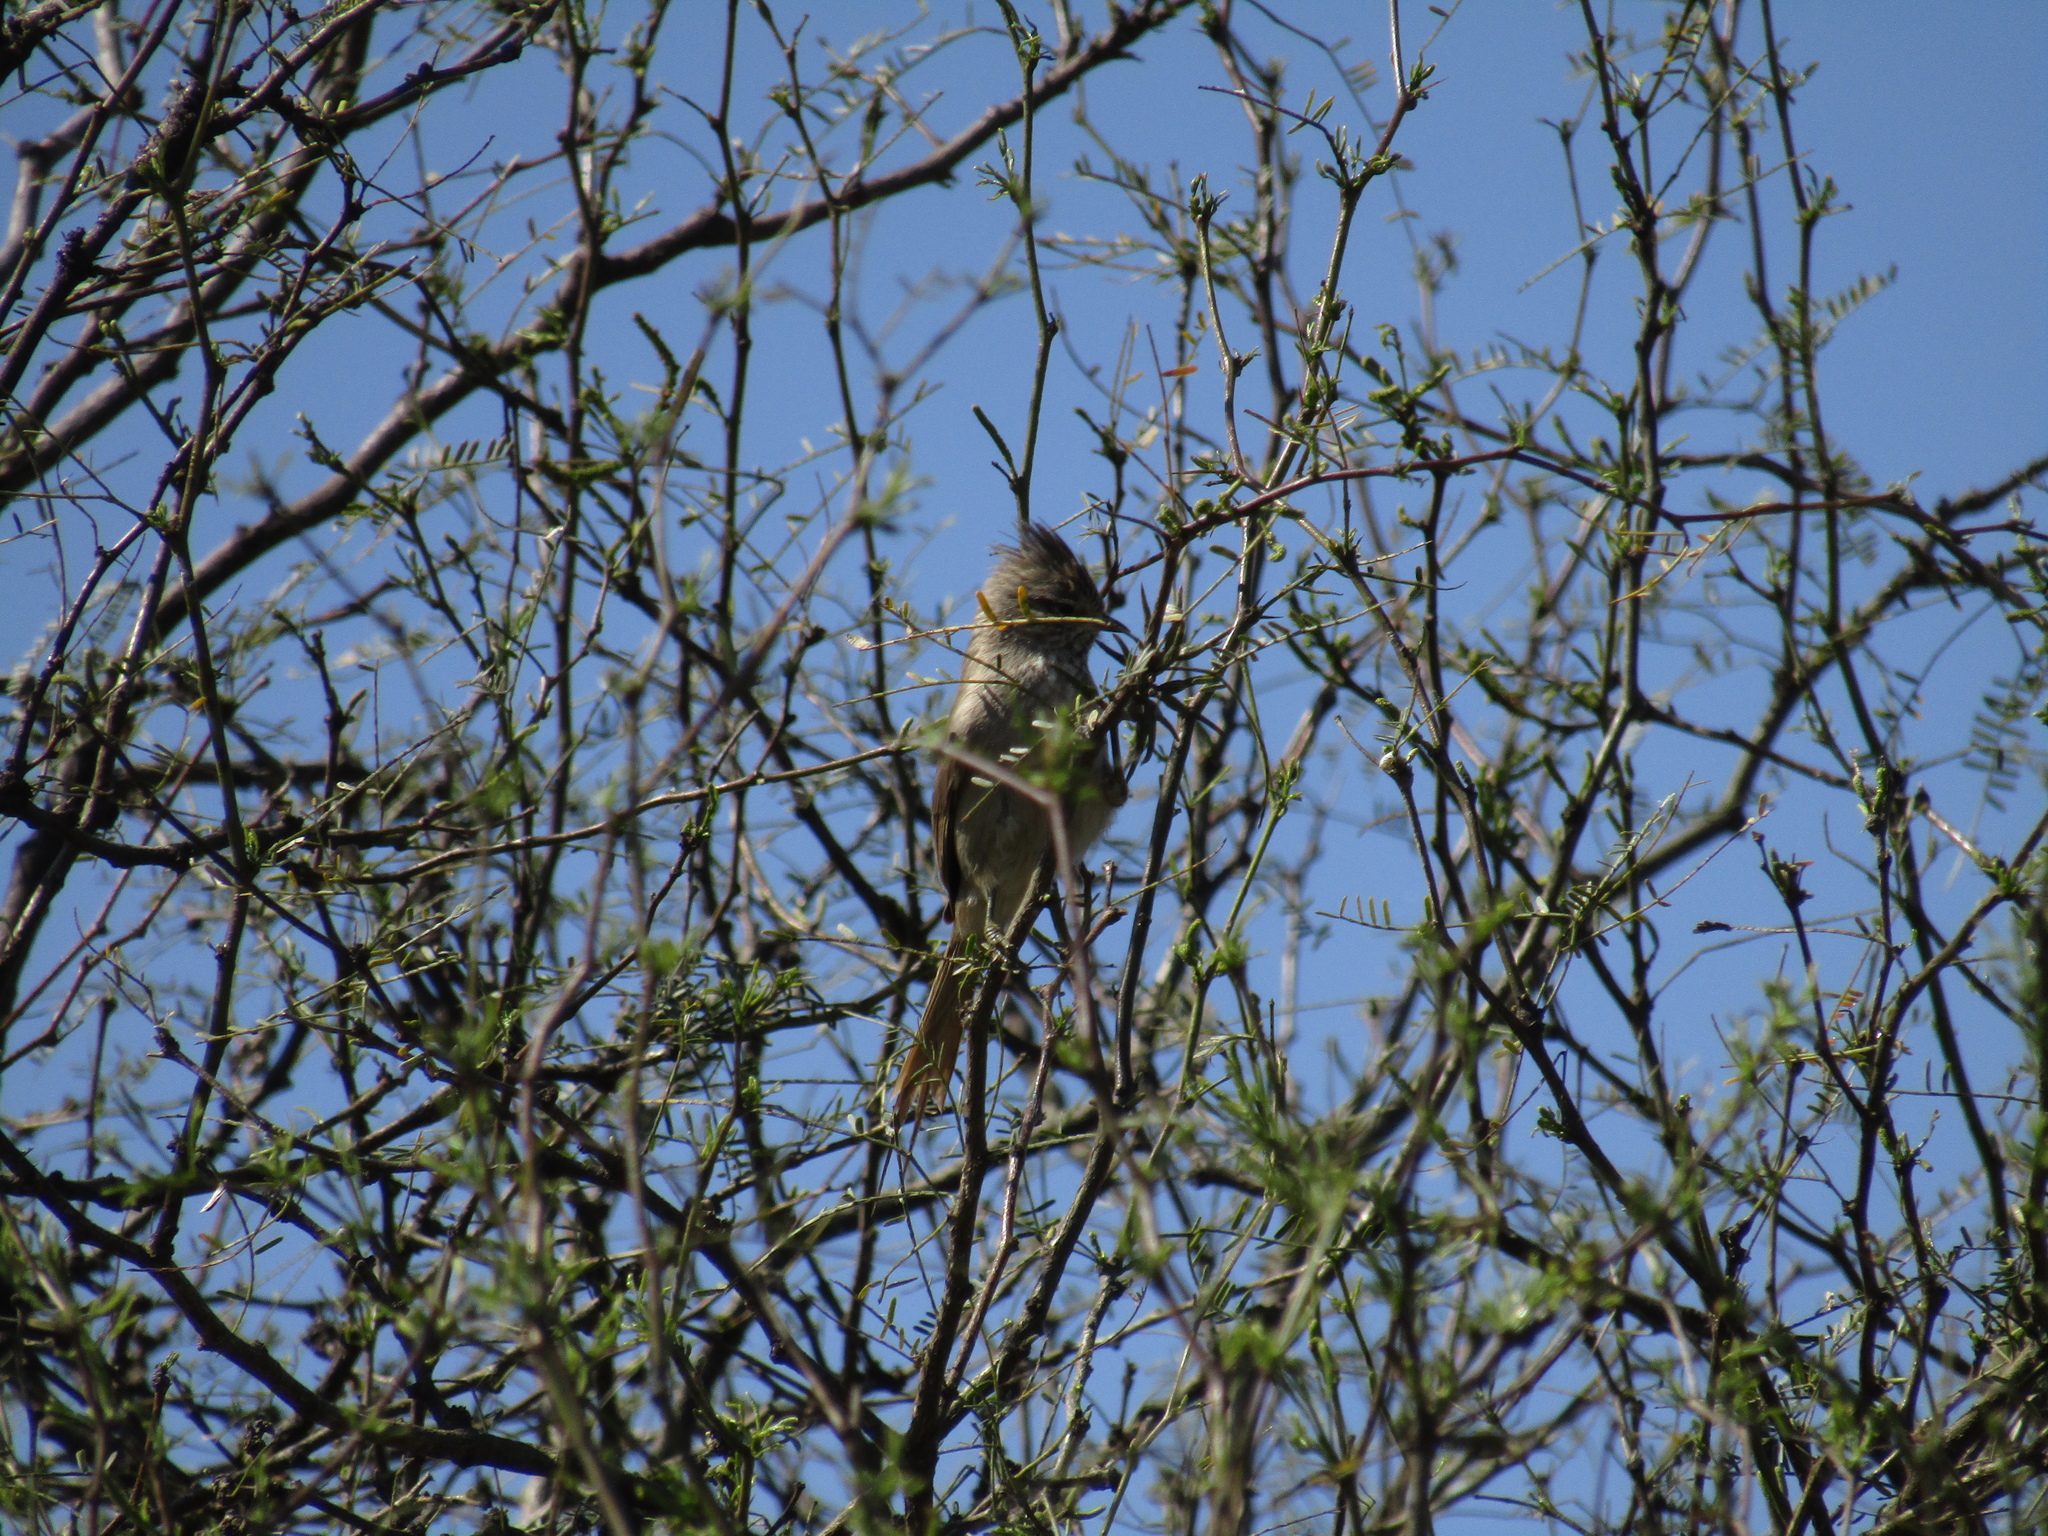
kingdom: Animalia
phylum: Chordata
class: Aves
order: Passeriformes
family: Furnariidae
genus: Leptasthenura
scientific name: Leptasthenura platensis
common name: Tufted tit-spinetail
